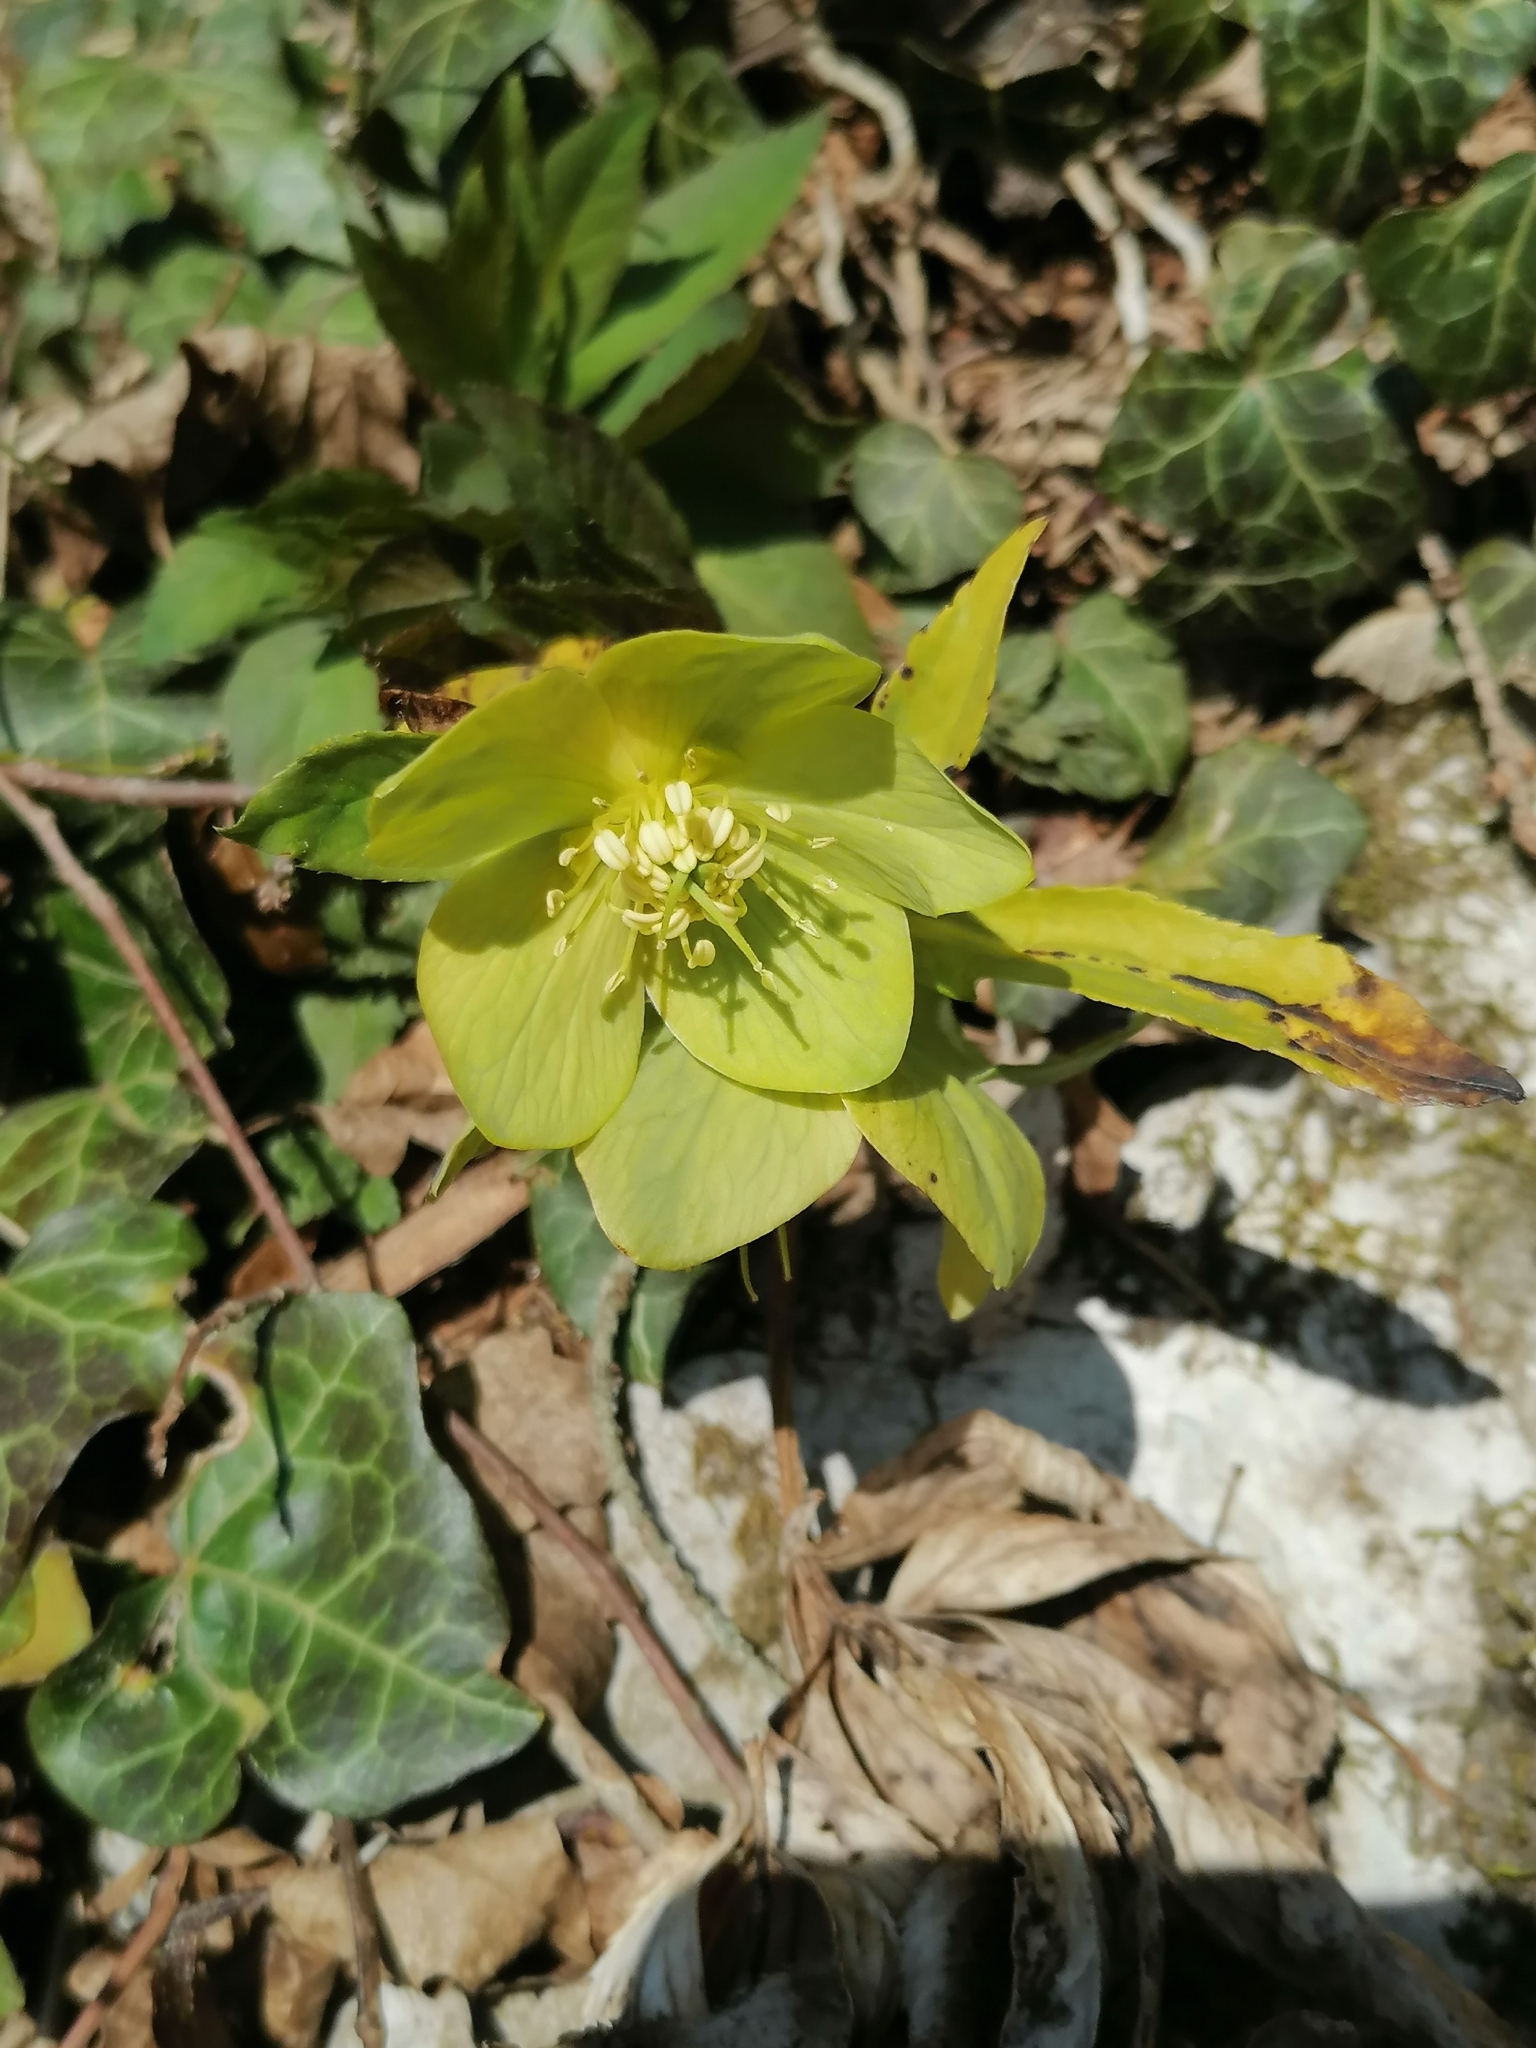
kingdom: Plantae
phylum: Tracheophyta
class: Magnoliopsida
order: Ranunculales
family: Ranunculaceae
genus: Helleborus
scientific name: Helleborus odorus
